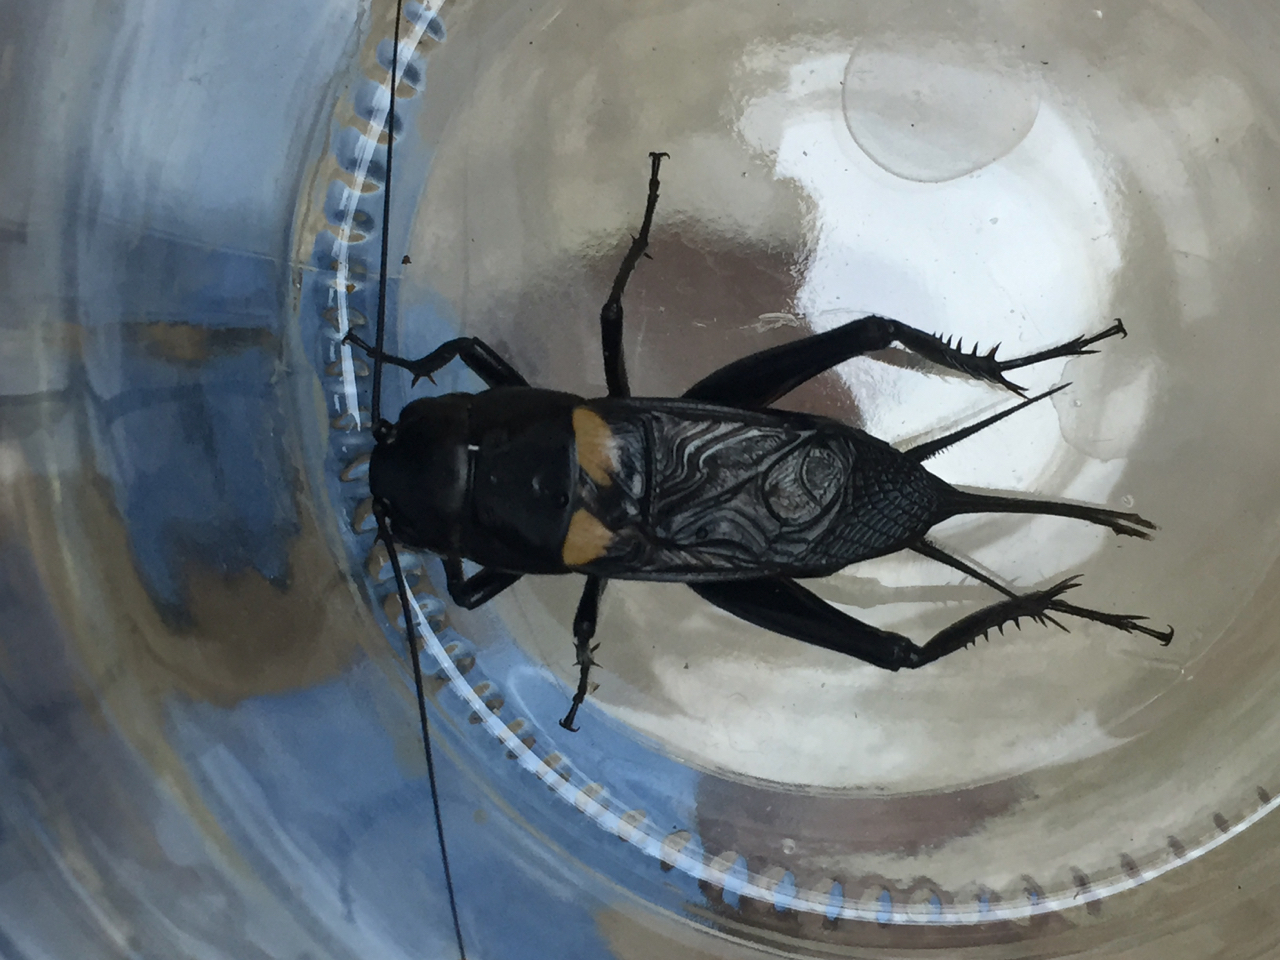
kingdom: Animalia
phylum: Arthropoda
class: Insecta
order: Orthoptera
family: Gryllidae
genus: Gryllus
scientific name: Gryllus bimaculatus
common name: Two-spotted cricket
